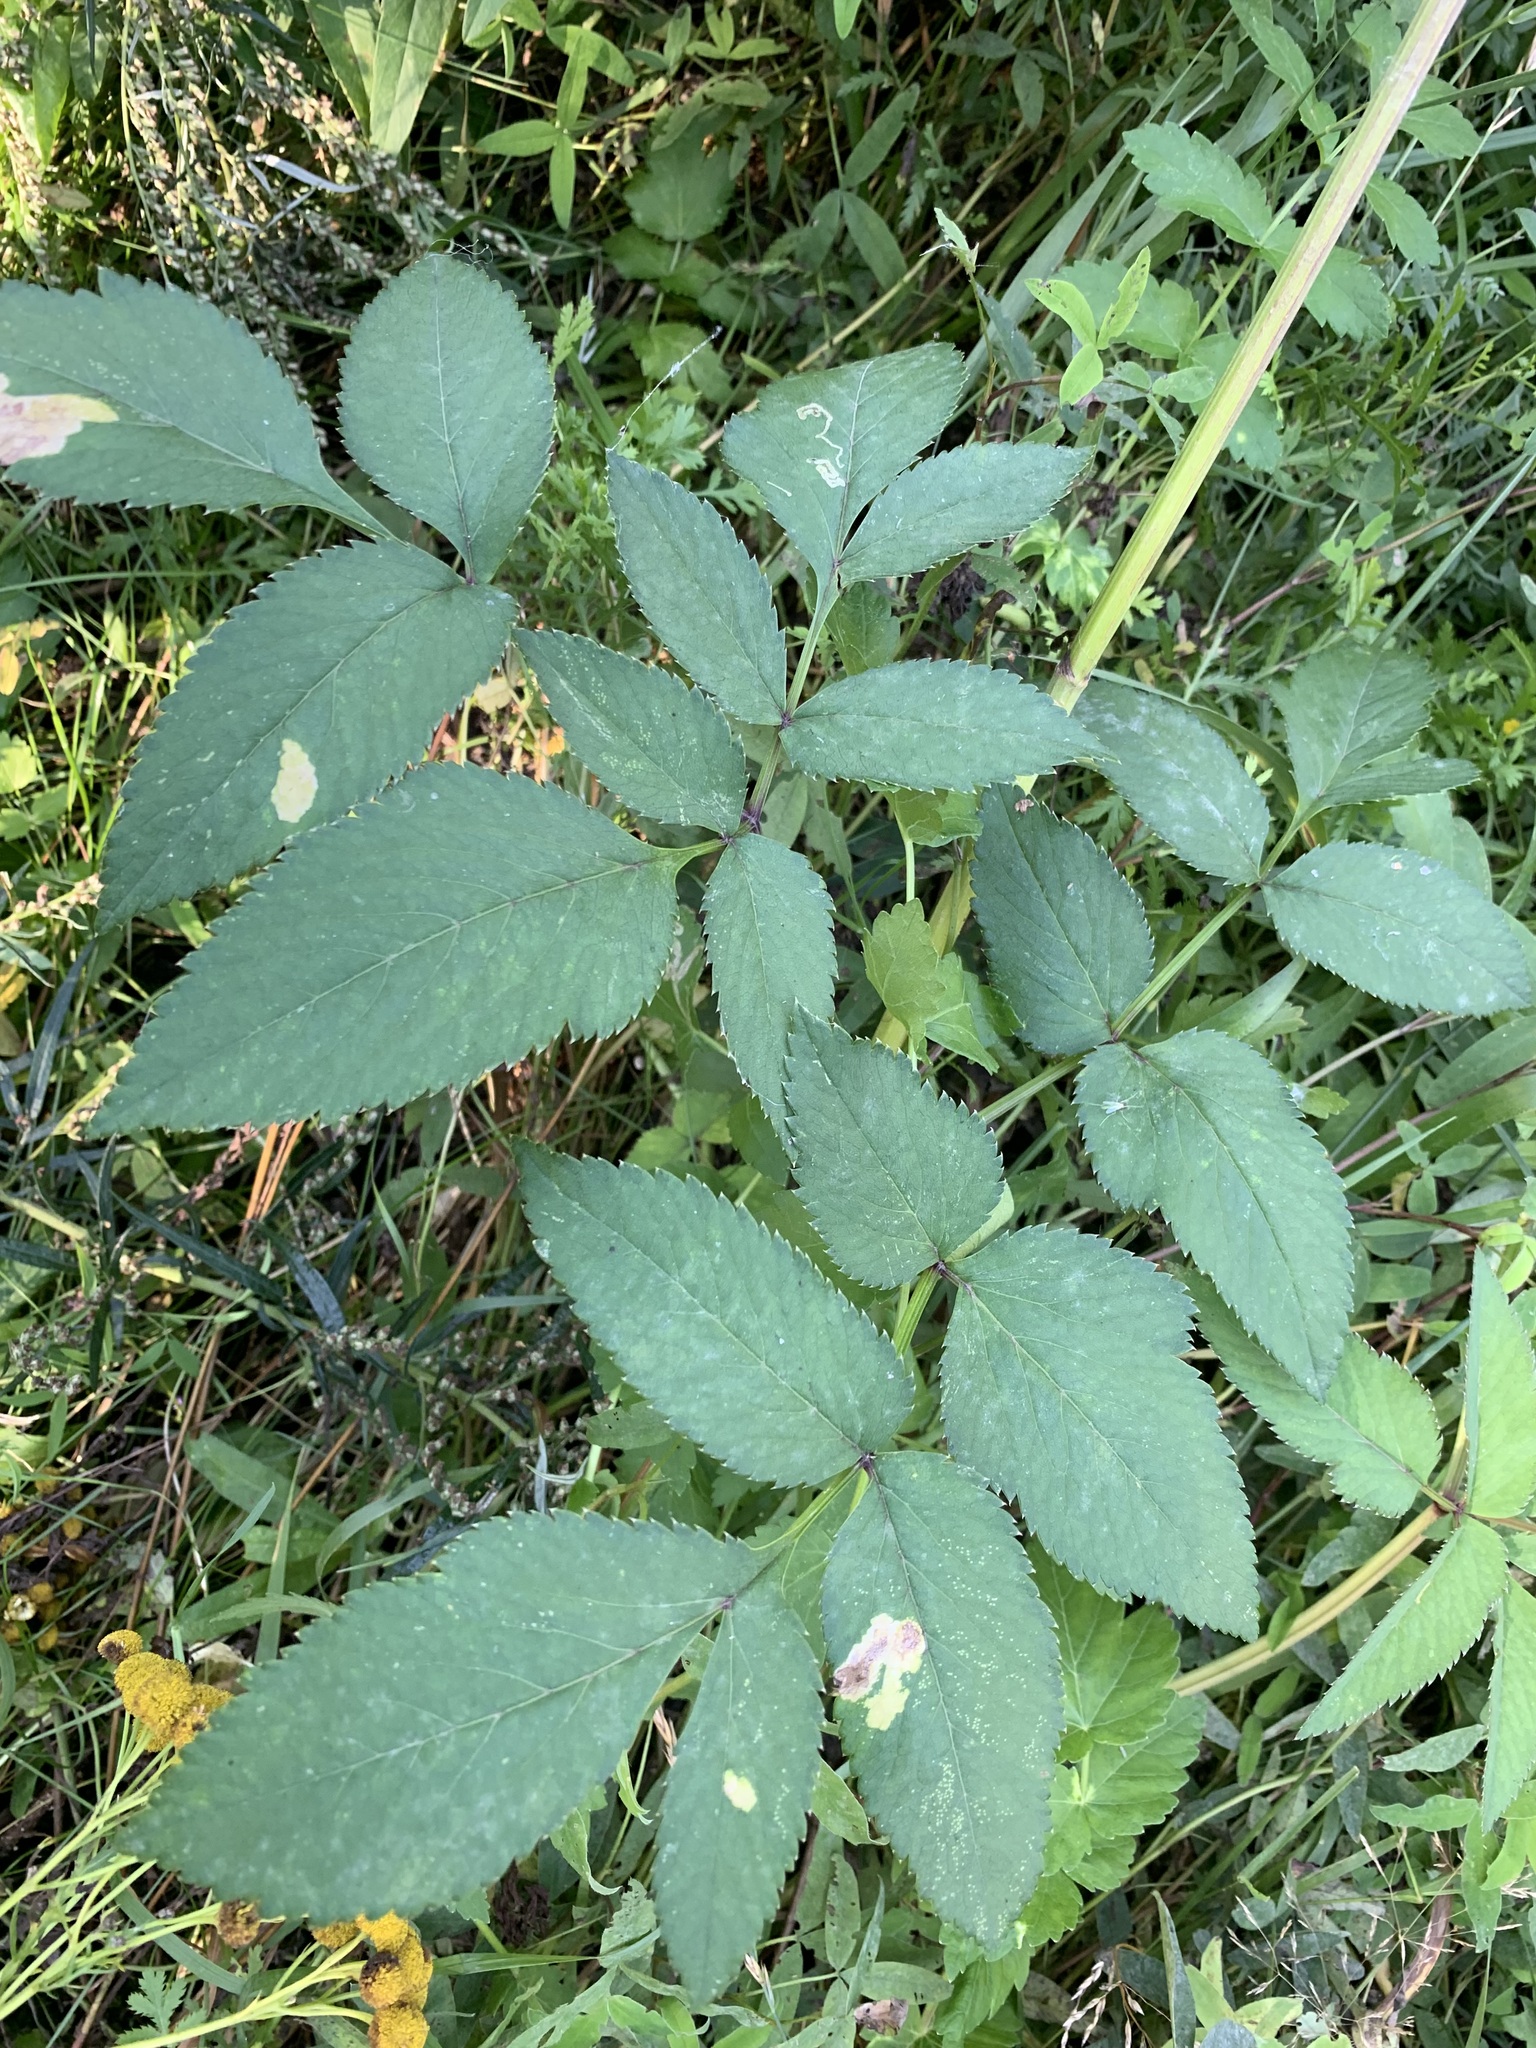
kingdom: Plantae
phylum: Tracheophyta
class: Magnoliopsida
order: Apiales
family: Apiaceae
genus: Angelica
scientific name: Angelica sylvestris
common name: Wild angelica
